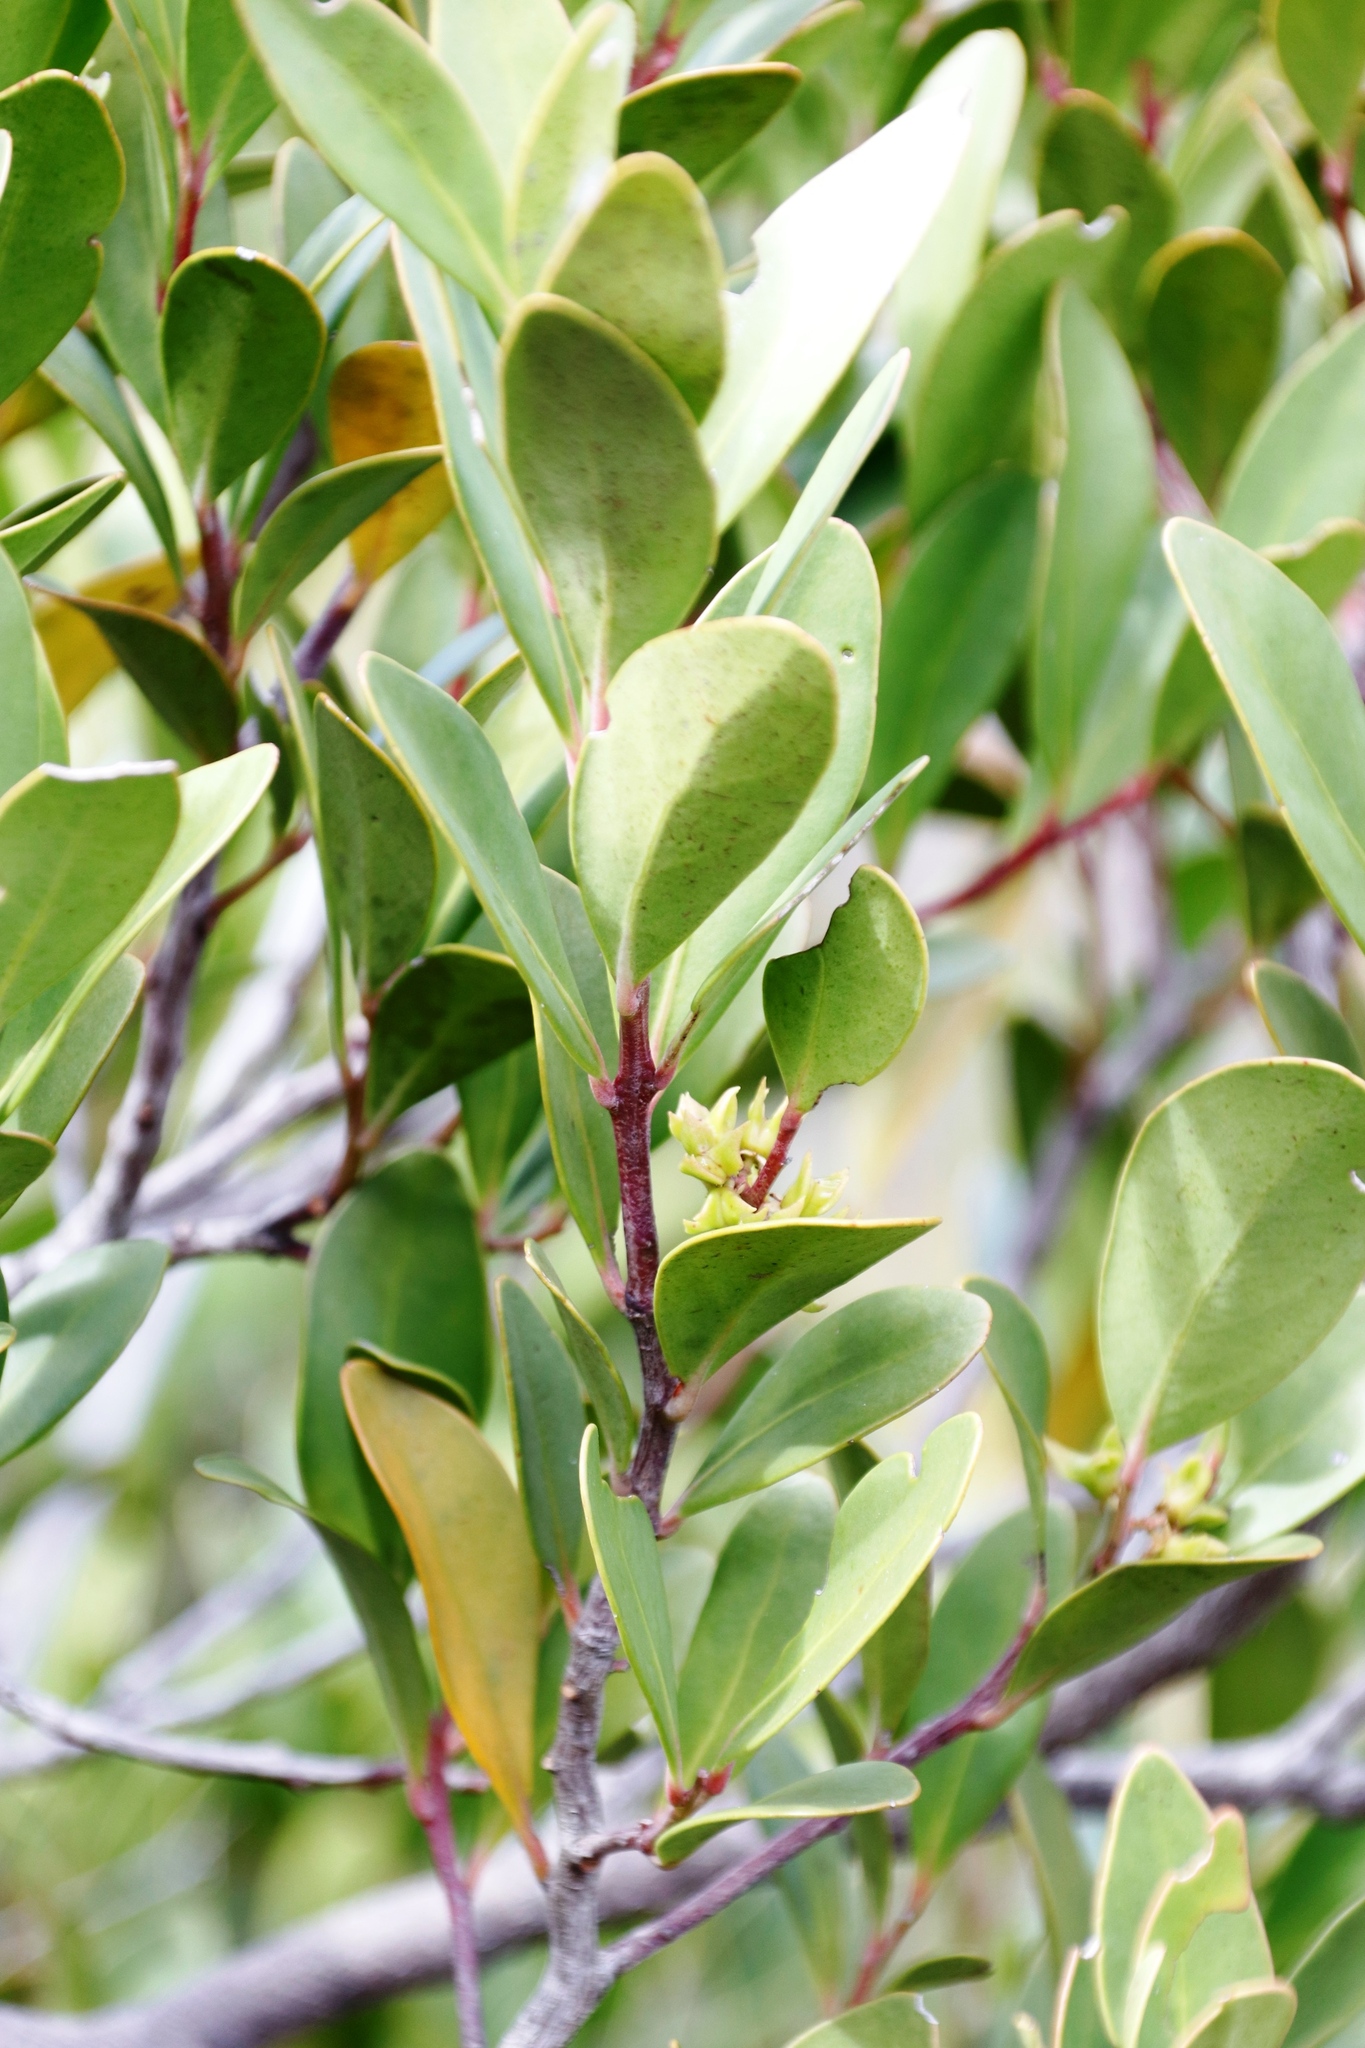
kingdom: Plantae
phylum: Tracheophyta
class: Magnoliopsida
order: Celastrales
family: Celastraceae
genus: Pterocelastrus
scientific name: Pterocelastrus tricuspidatus
